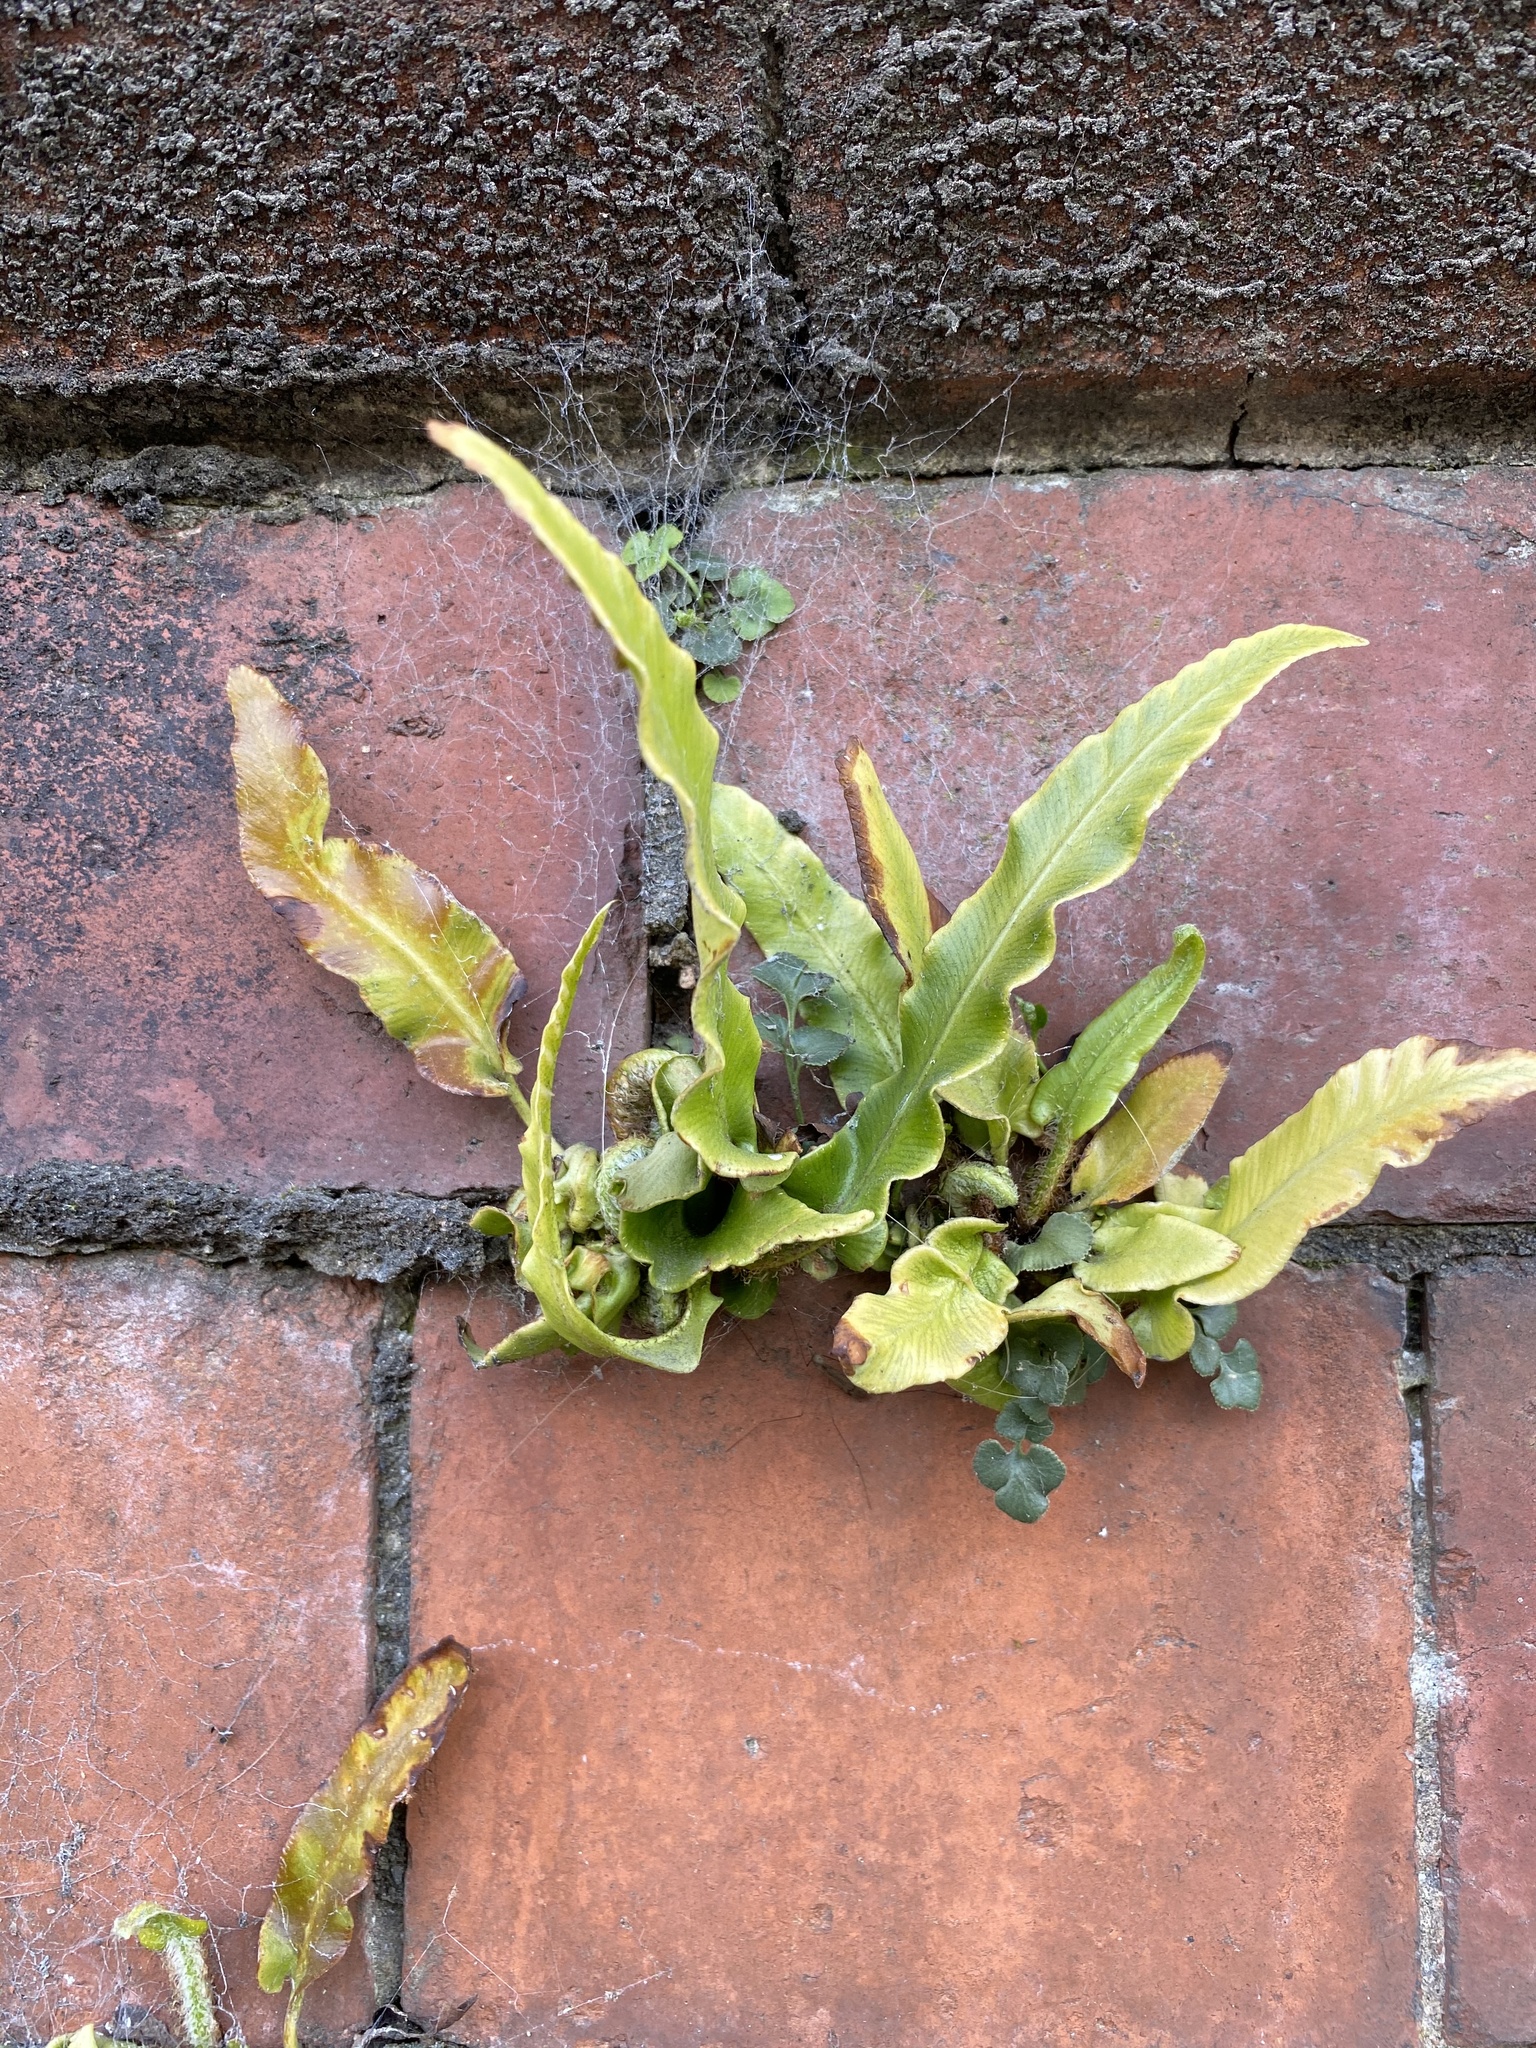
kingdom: Plantae
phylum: Tracheophyta
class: Polypodiopsida
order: Polypodiales
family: Aspleniaceae
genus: Asplenium
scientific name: Asplenium scolopendrium
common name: Hart's-tongue fern
